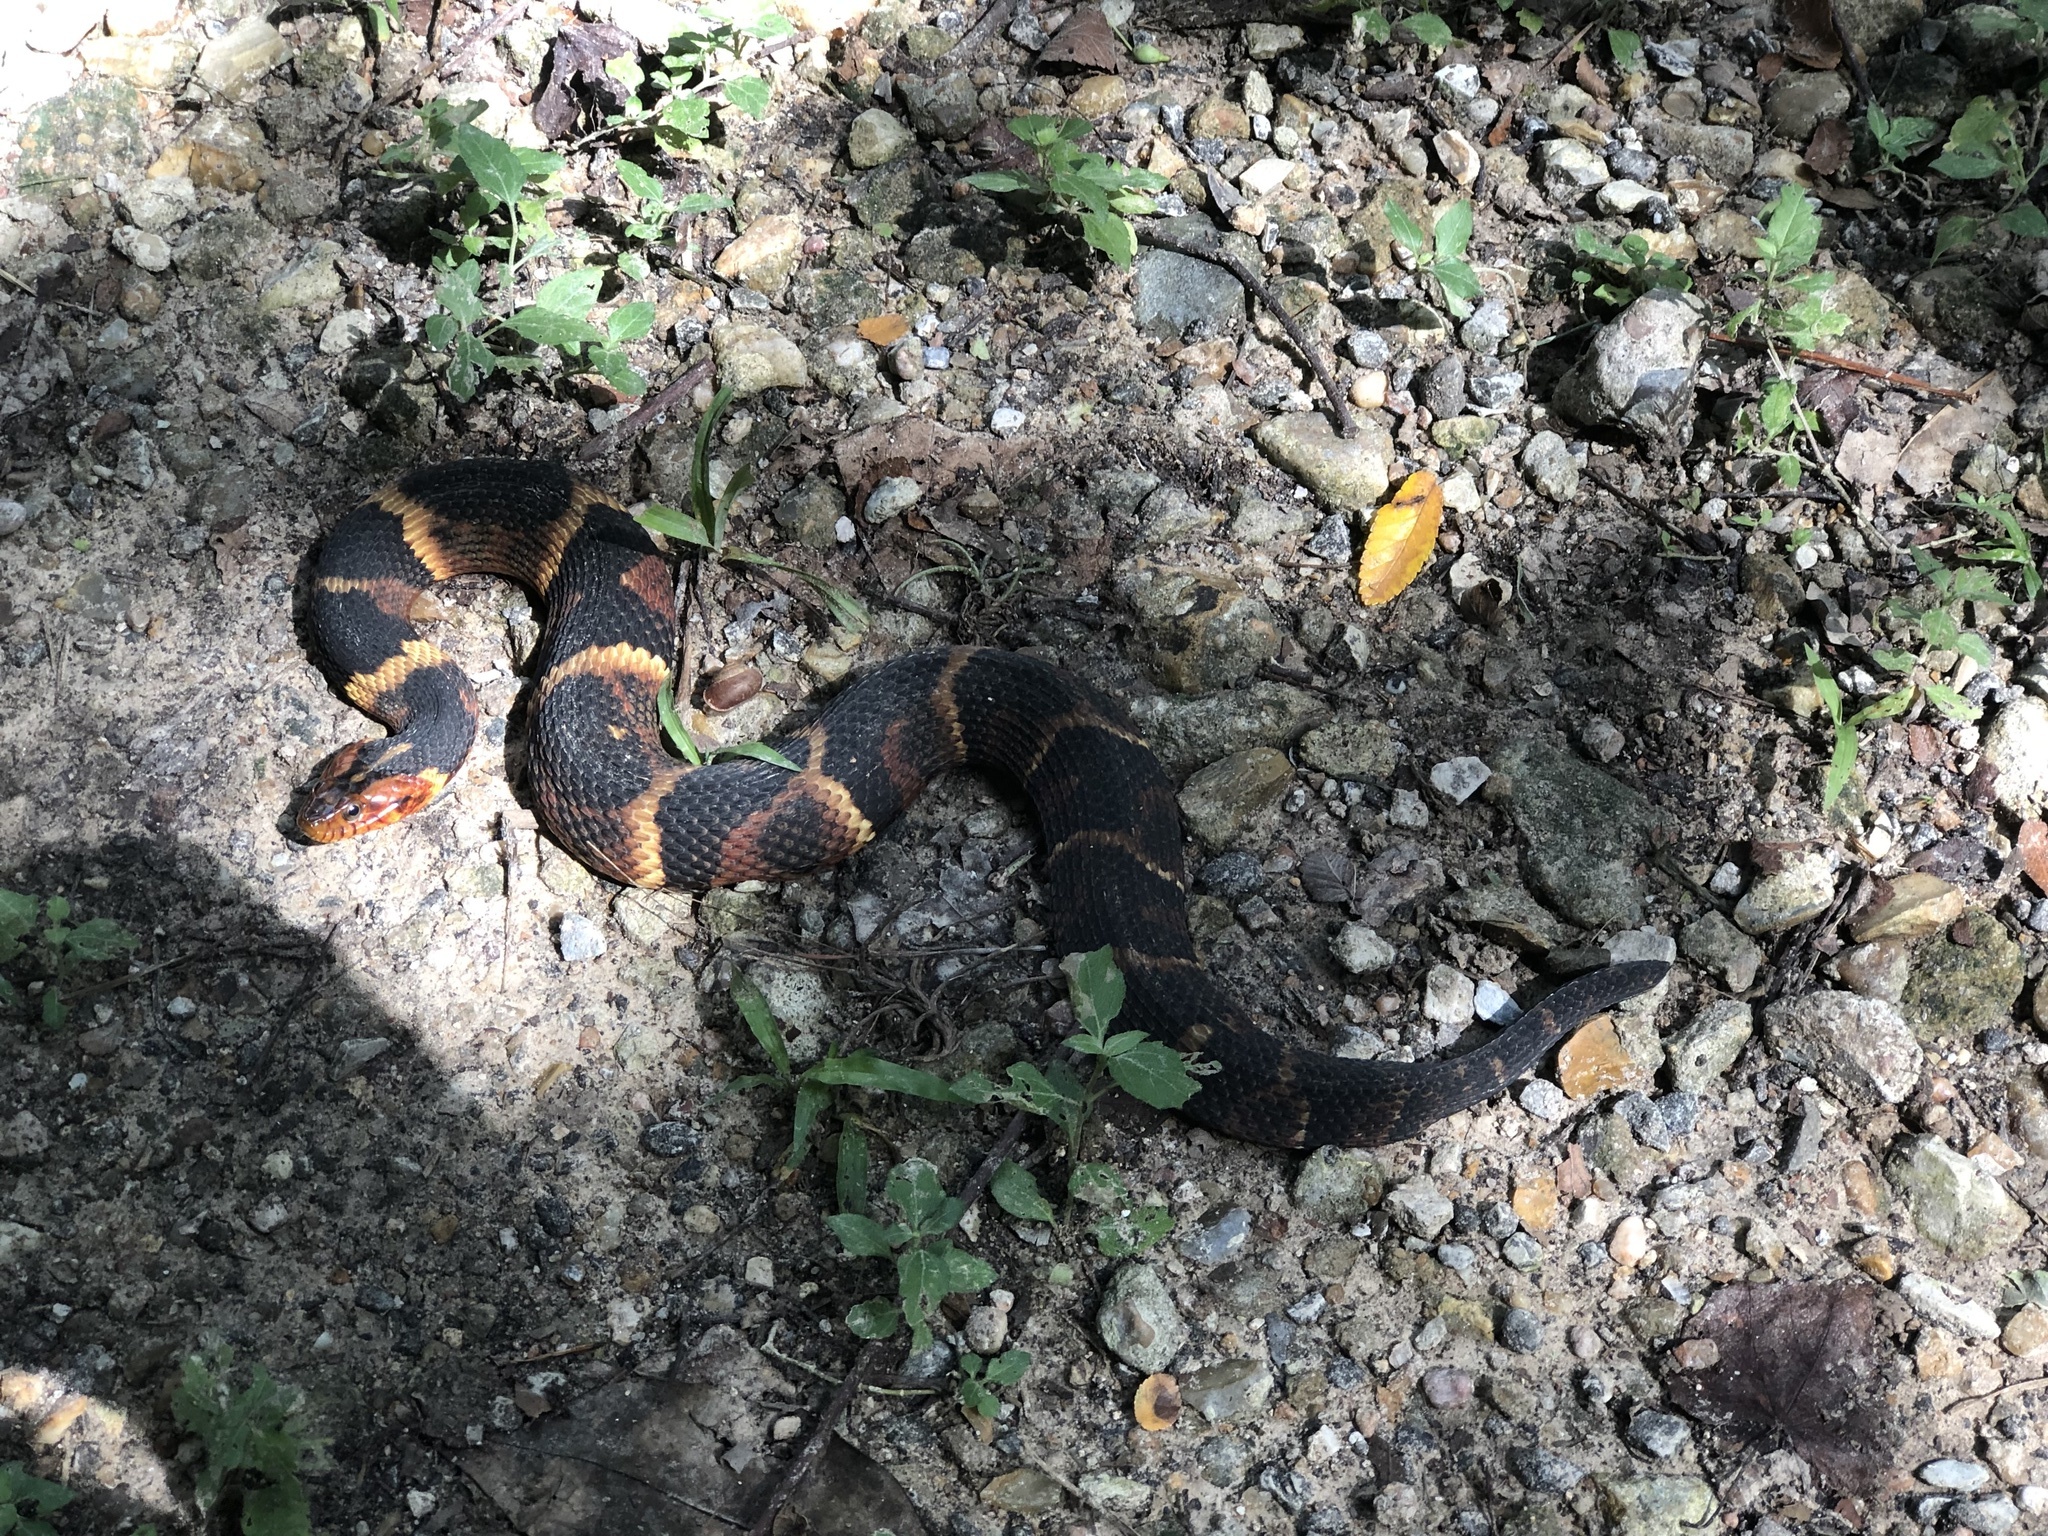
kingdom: Animalia
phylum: Chordata
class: Squamata
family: Colubridae
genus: Nerodia
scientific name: Nerodia fasciata
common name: Southern water snake
